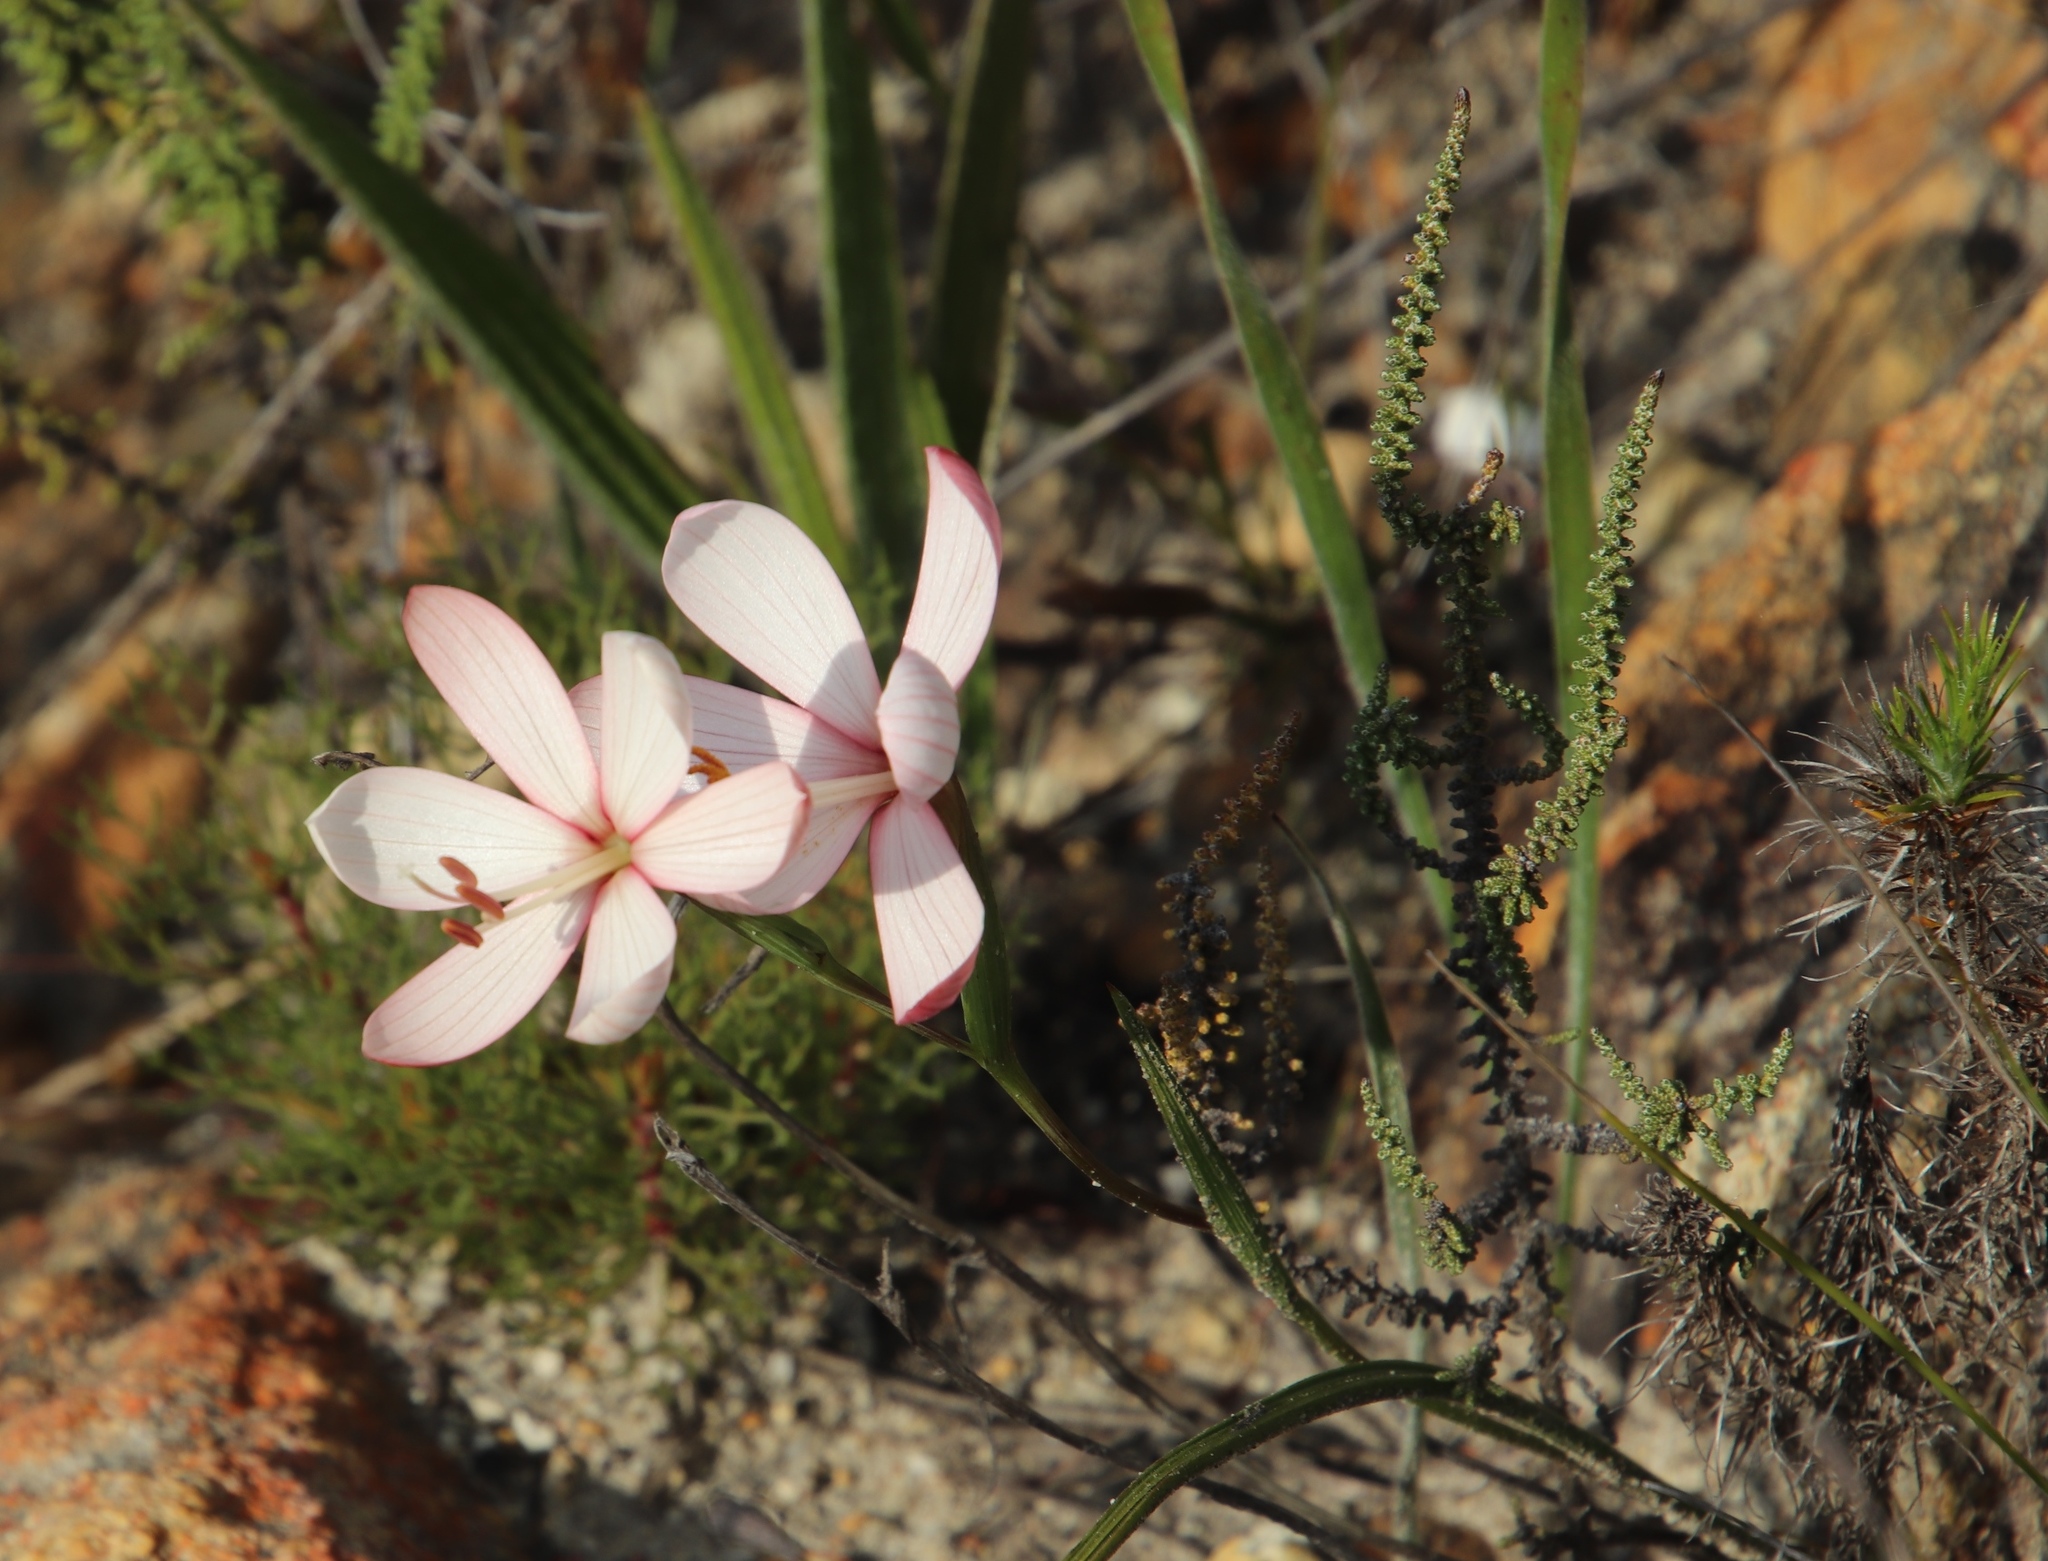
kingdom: Plantae
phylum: Tracheophyta
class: Liliopsida
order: Asparagales
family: Iridaceae
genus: Geissorhiza
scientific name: Geissorhiza schinzii
